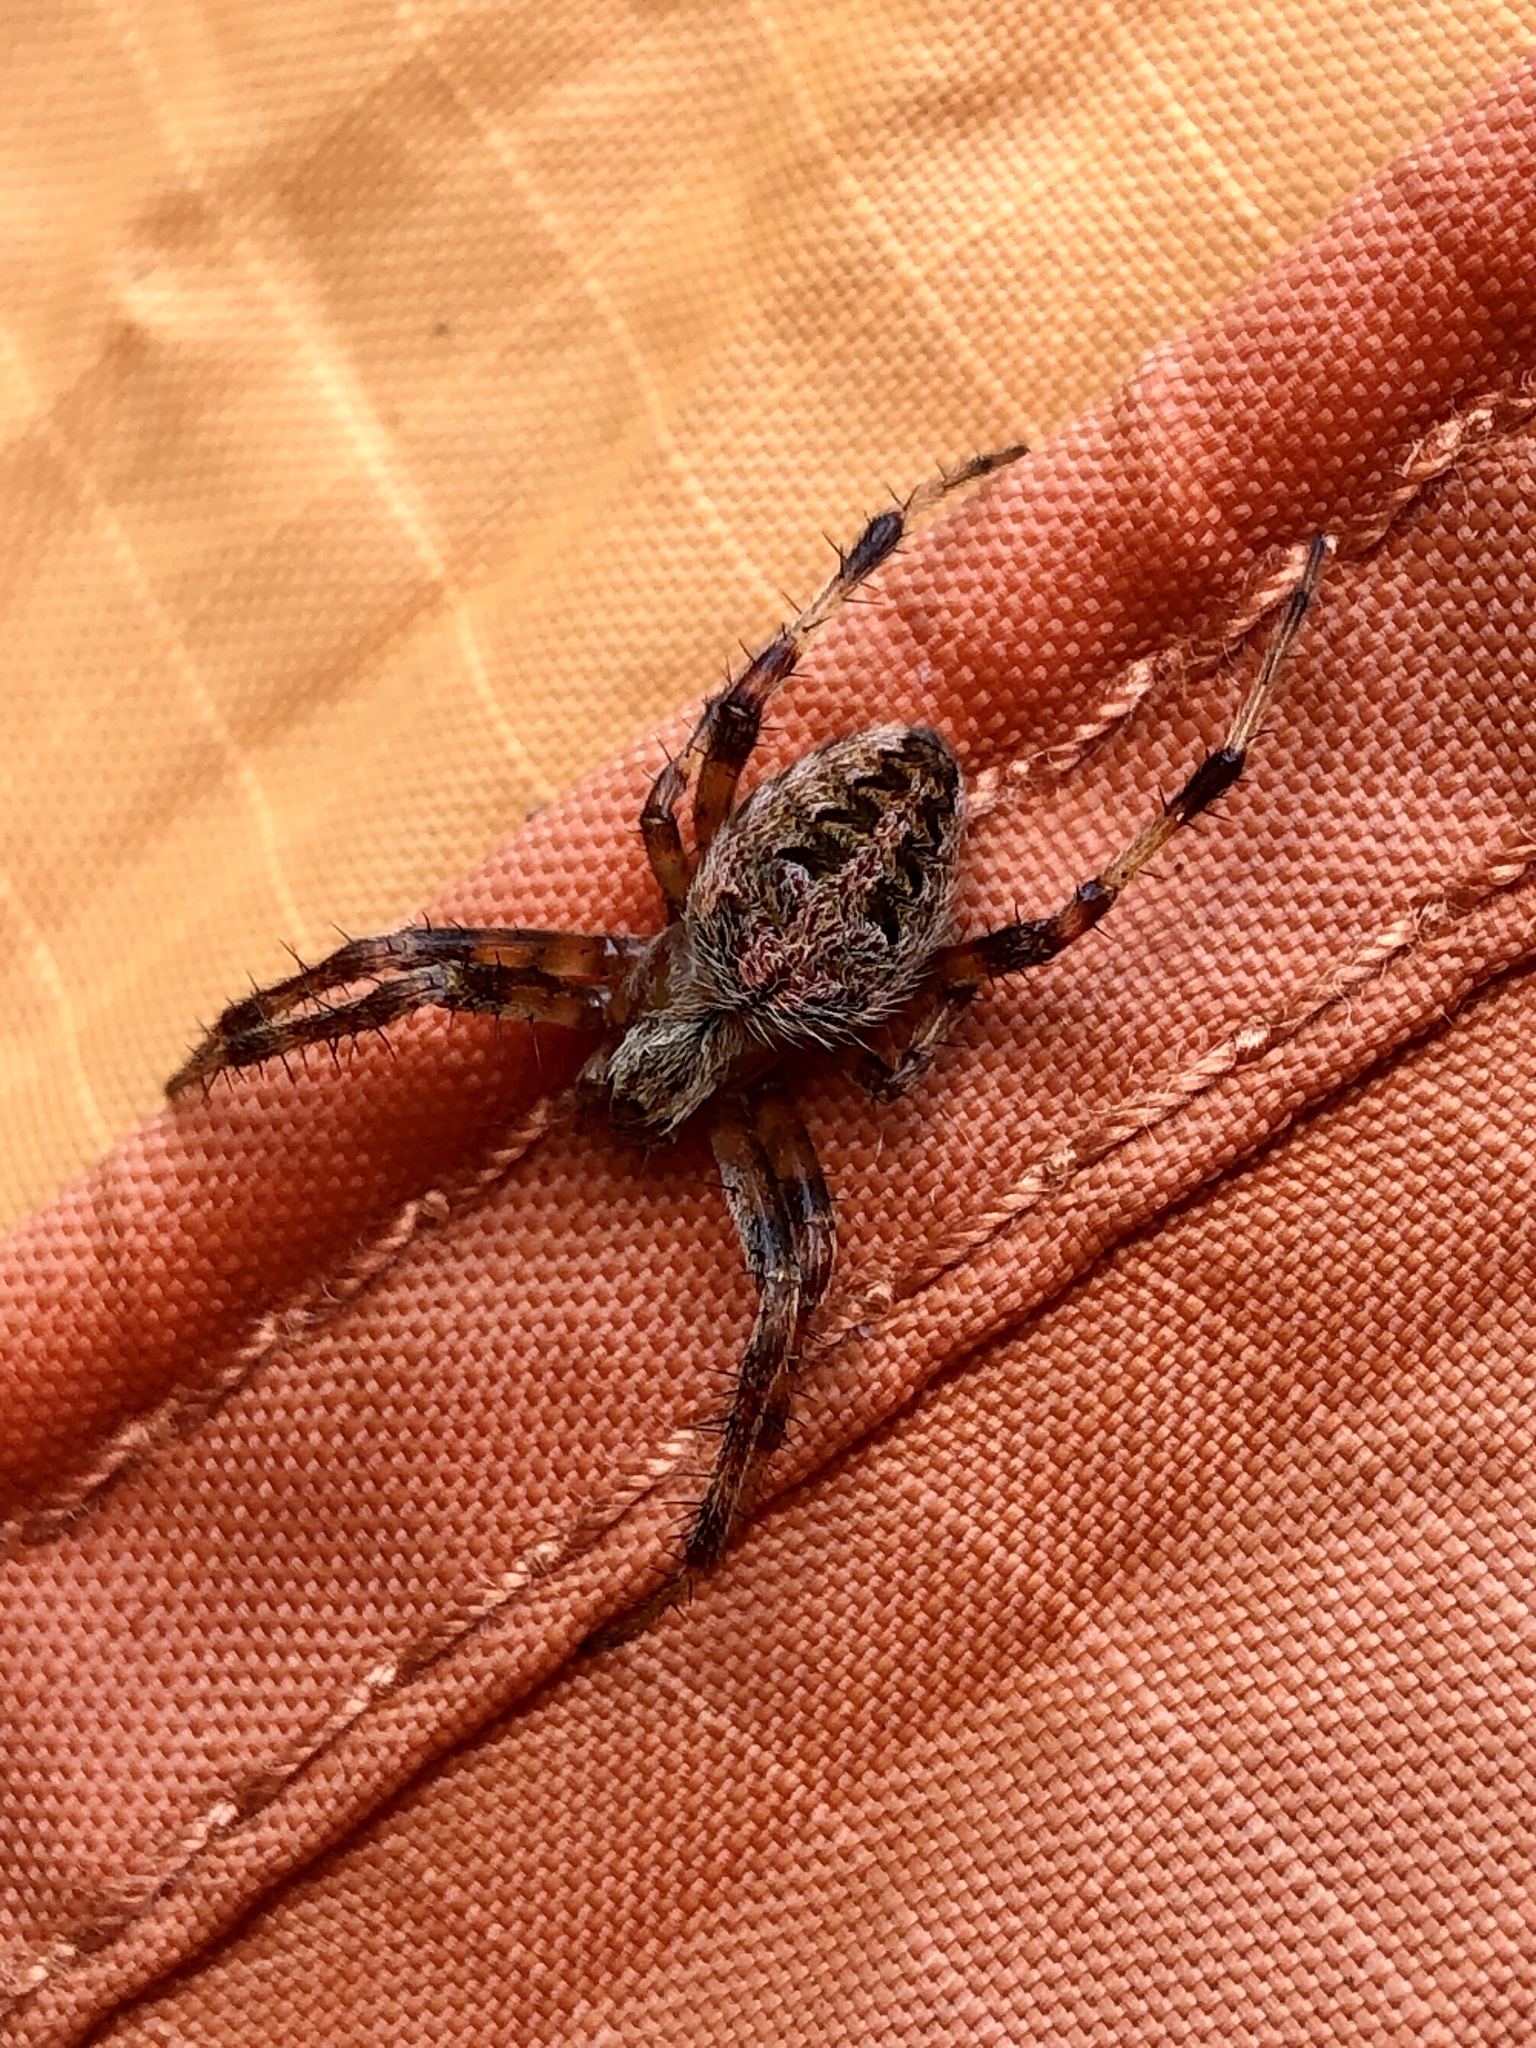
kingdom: Animalia
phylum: Arthropoda
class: Arachnida
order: Araneae
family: Araneidae
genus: Neoscona
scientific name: Neoscona arabesca
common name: Orb weavers
